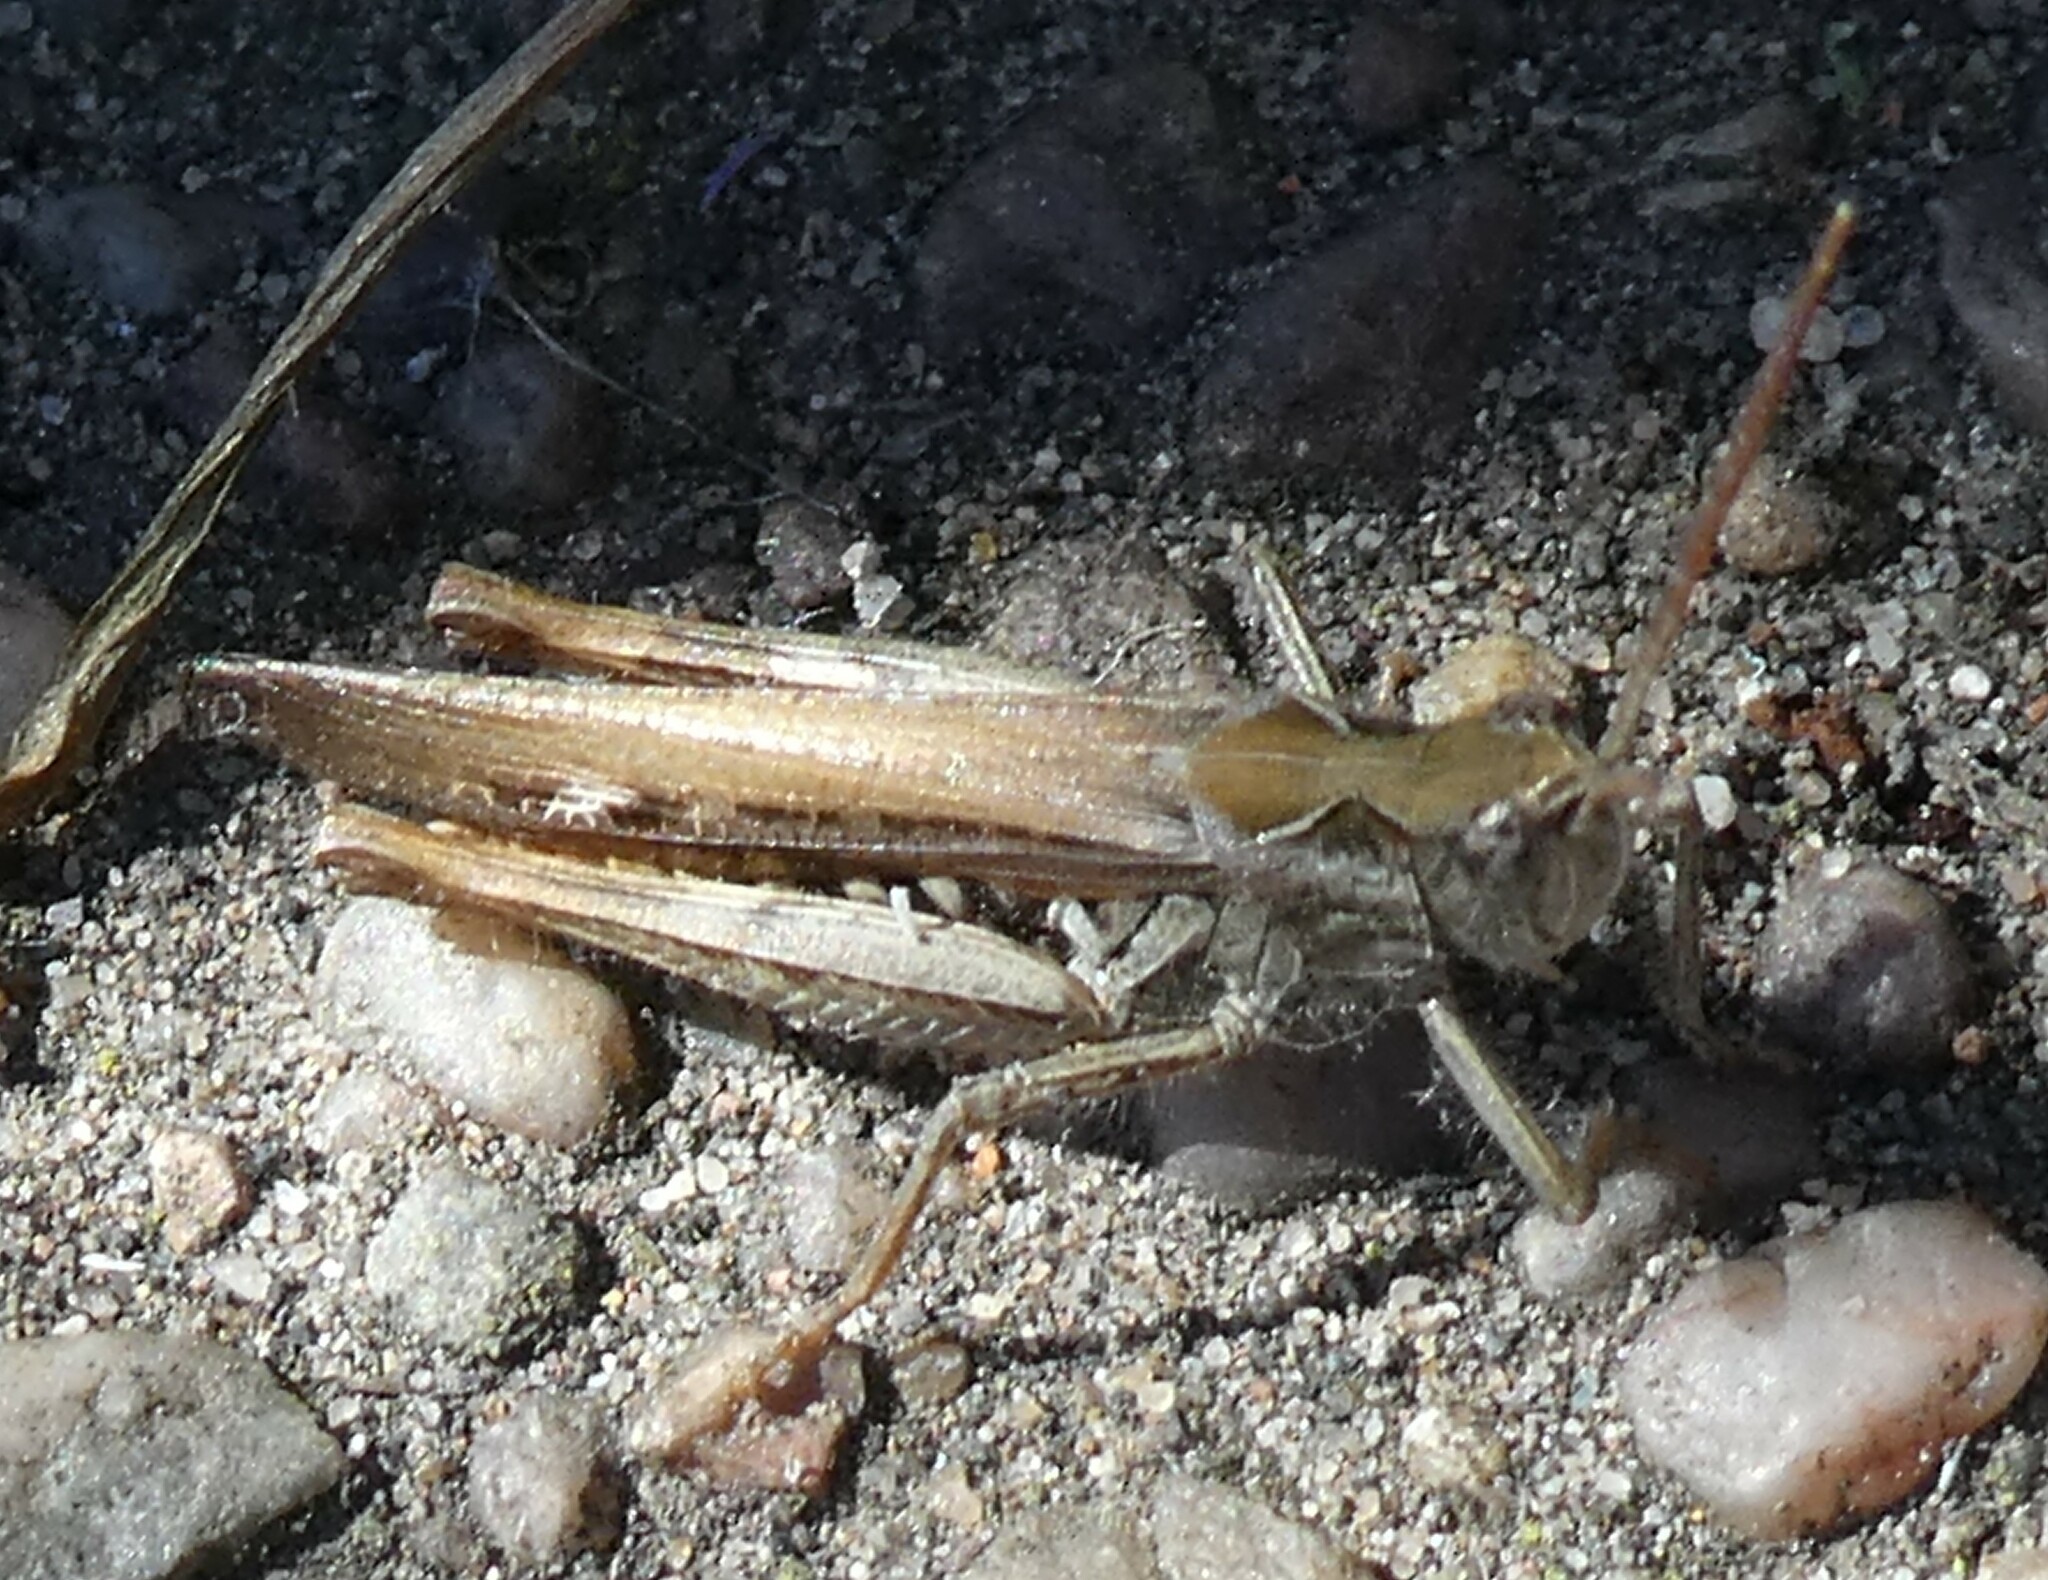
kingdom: Animalia
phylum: Arthropoda
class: Insecta
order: Orthoptera
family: Acrididae
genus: Chorthippus
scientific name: Chorthippus brunneus
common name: Field grasshopper
